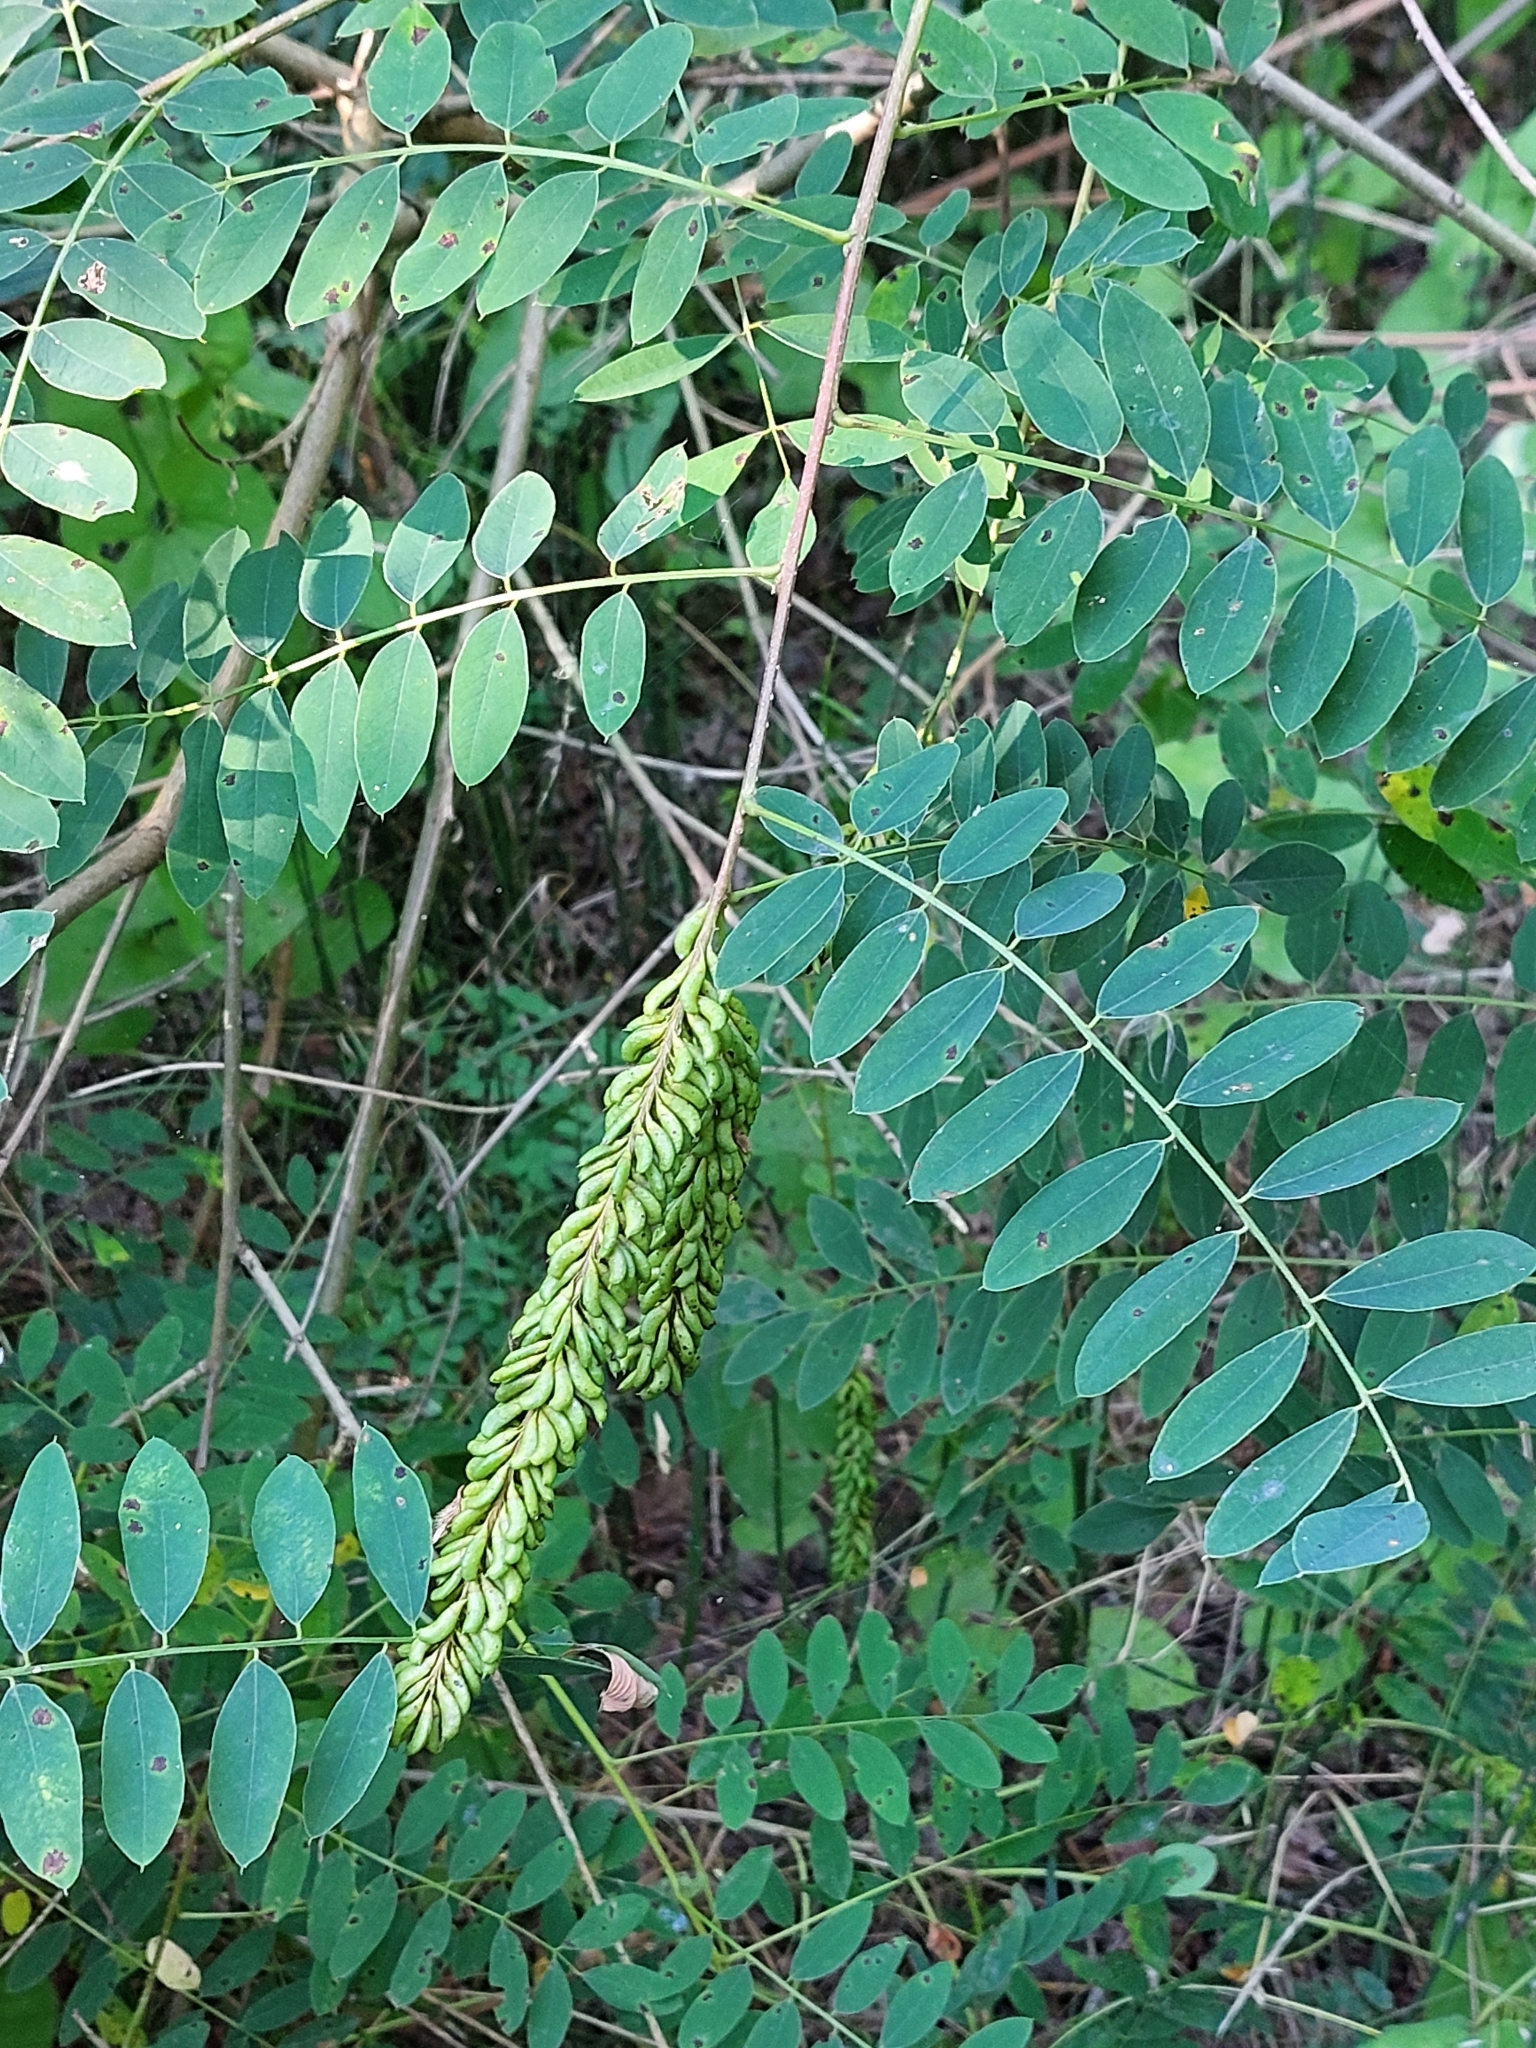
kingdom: Plantae
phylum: Tracheophyta
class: Magnoliopsida
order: Fabales
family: Fabaceae
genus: Amorpha
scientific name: Amorpha fruticosa
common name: False indigo
